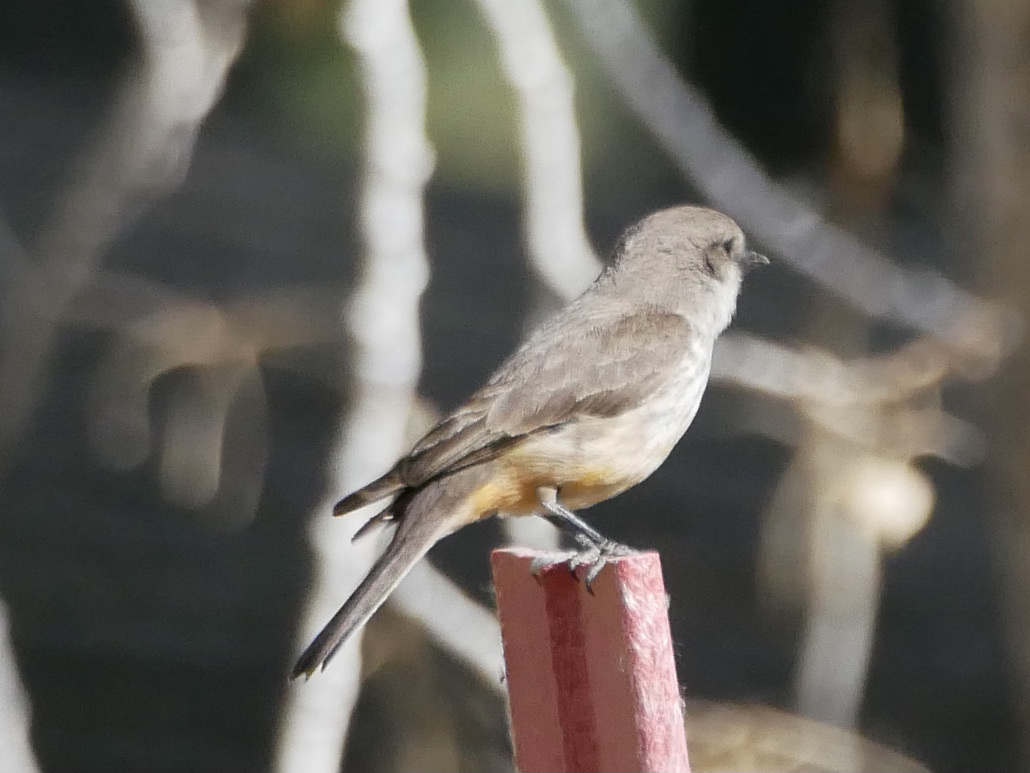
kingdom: Animalia
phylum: Chordata
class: Aves
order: Passeriformes
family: Tyrannidae
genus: Pyrocephalus
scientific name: Pyrocephalus rubinus
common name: Vermilion flycatcher
